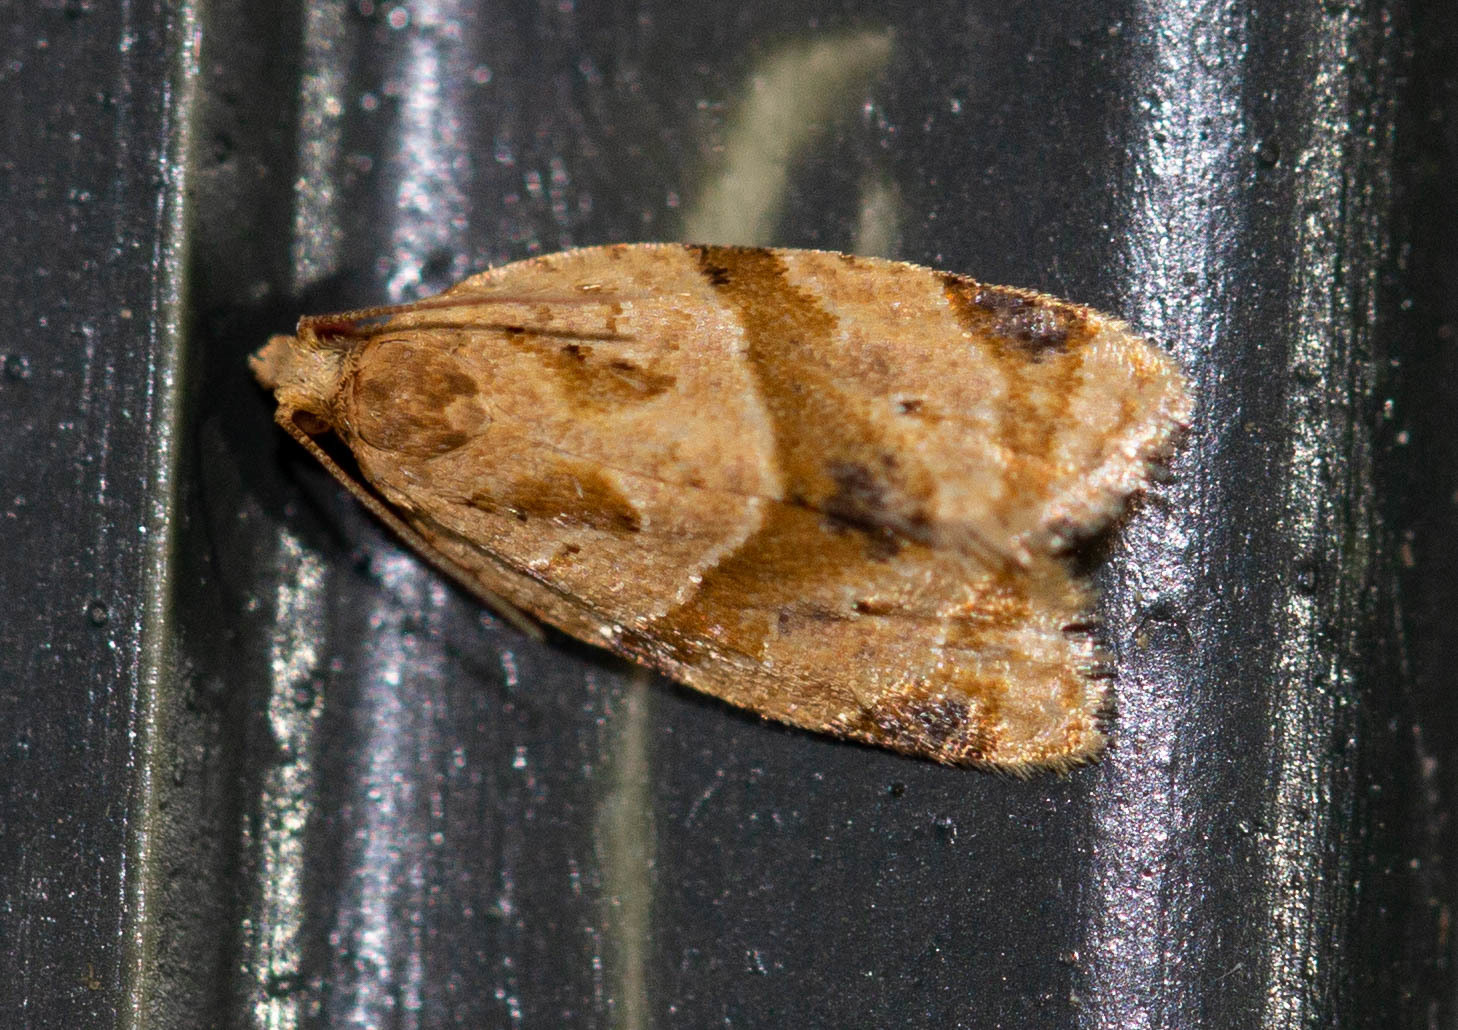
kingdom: Animalia
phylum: Arthropoda
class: Insecta
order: Lepidoptera
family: Tortricidae
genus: Clepsis
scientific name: Clepsis peritana
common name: Garden tortrix
